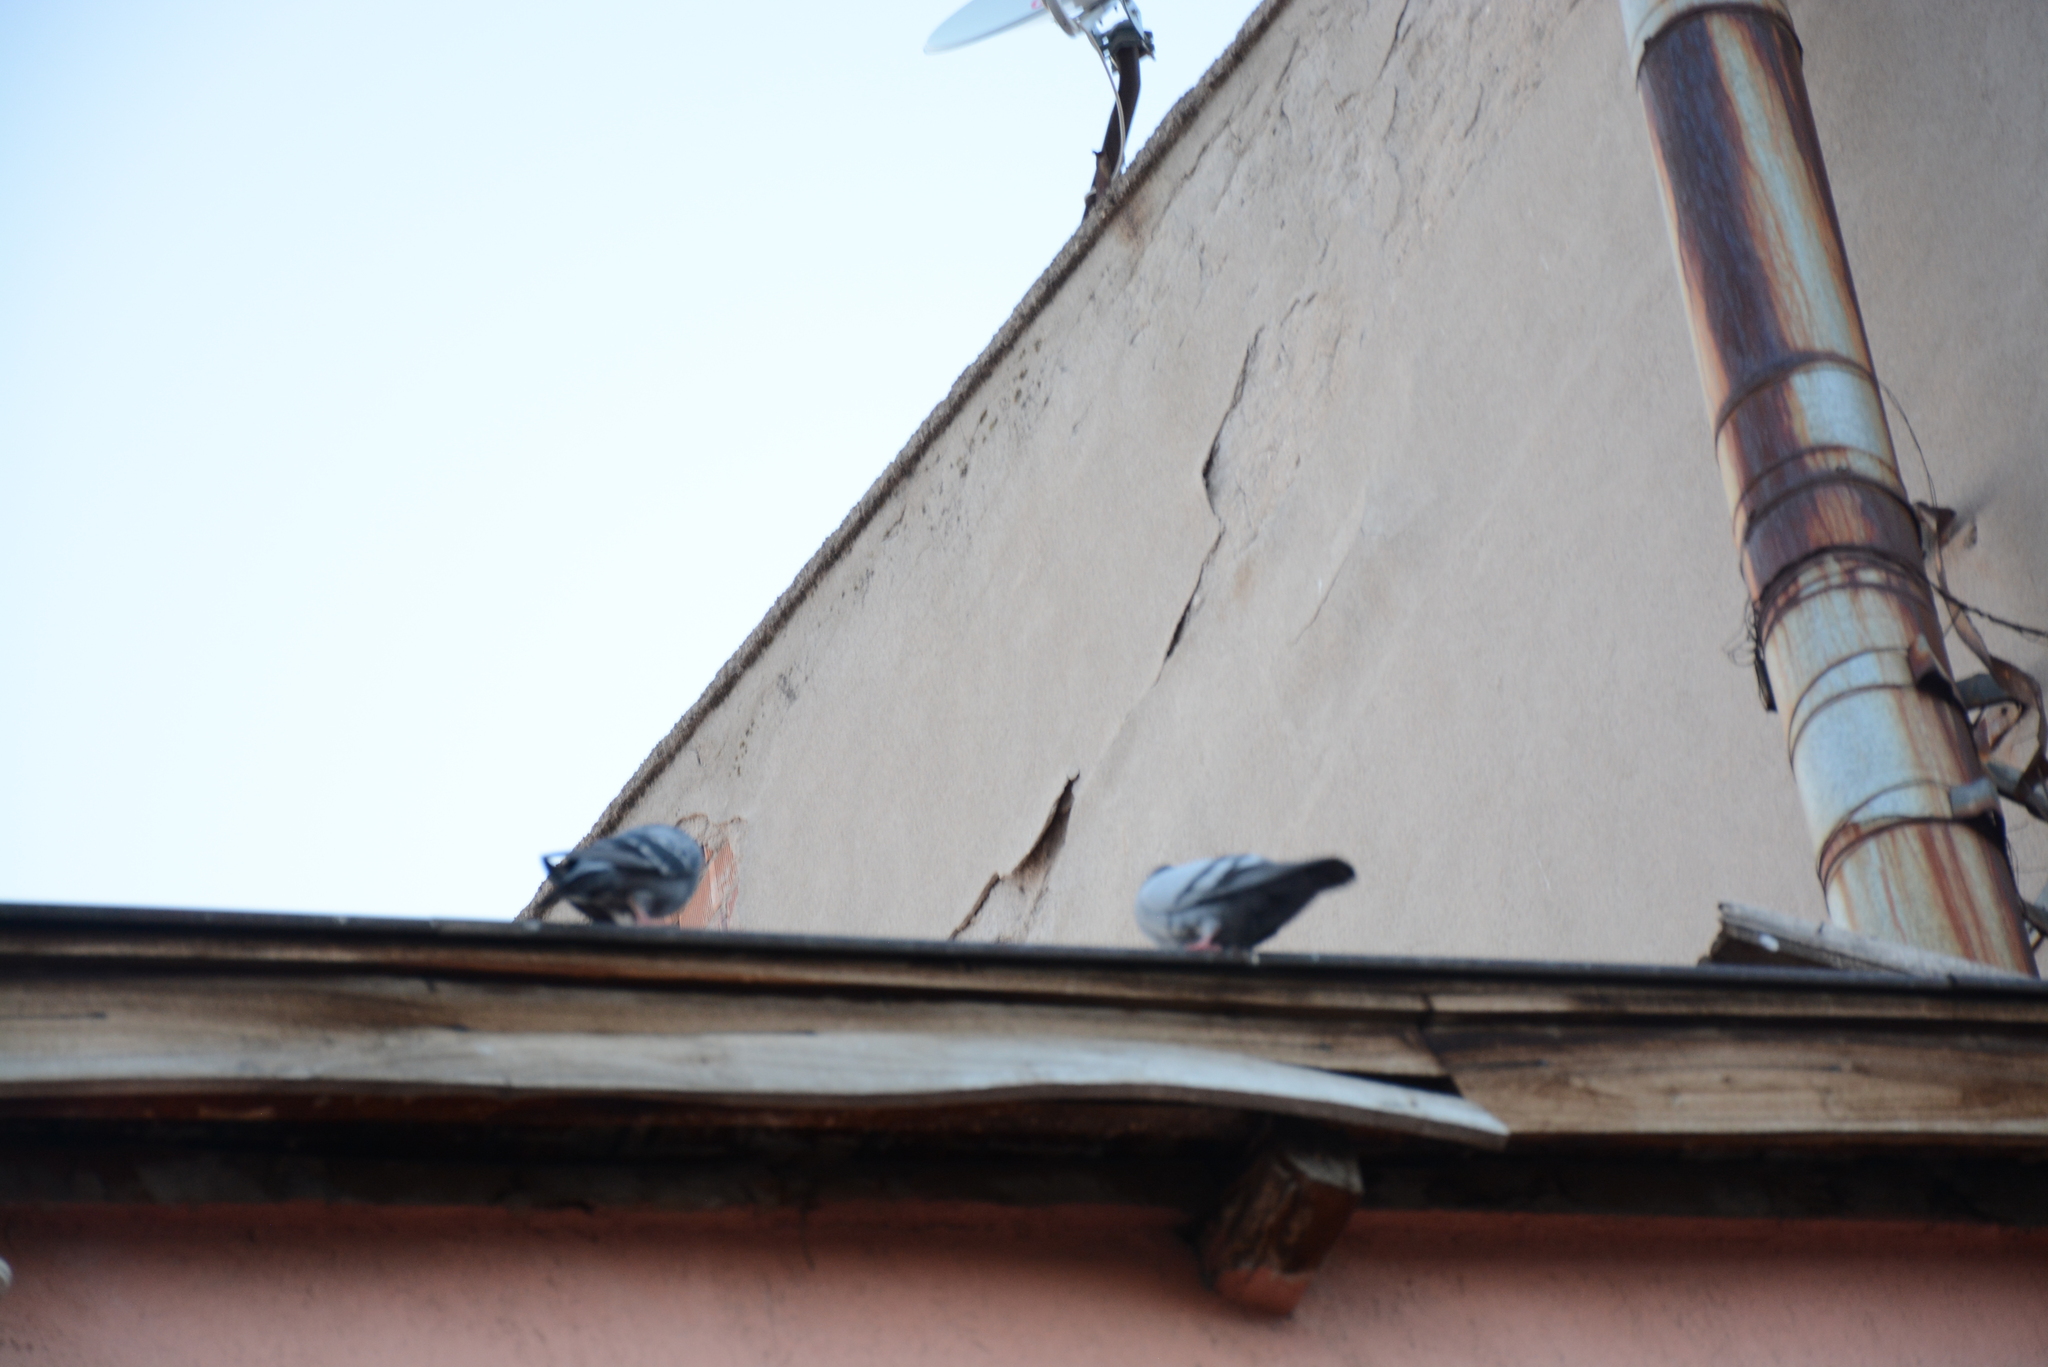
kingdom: Animalia
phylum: Chordata
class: Aves
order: Columbiformes
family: Columbidae
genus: Columba
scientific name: Columba livia
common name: Rock pigeon
